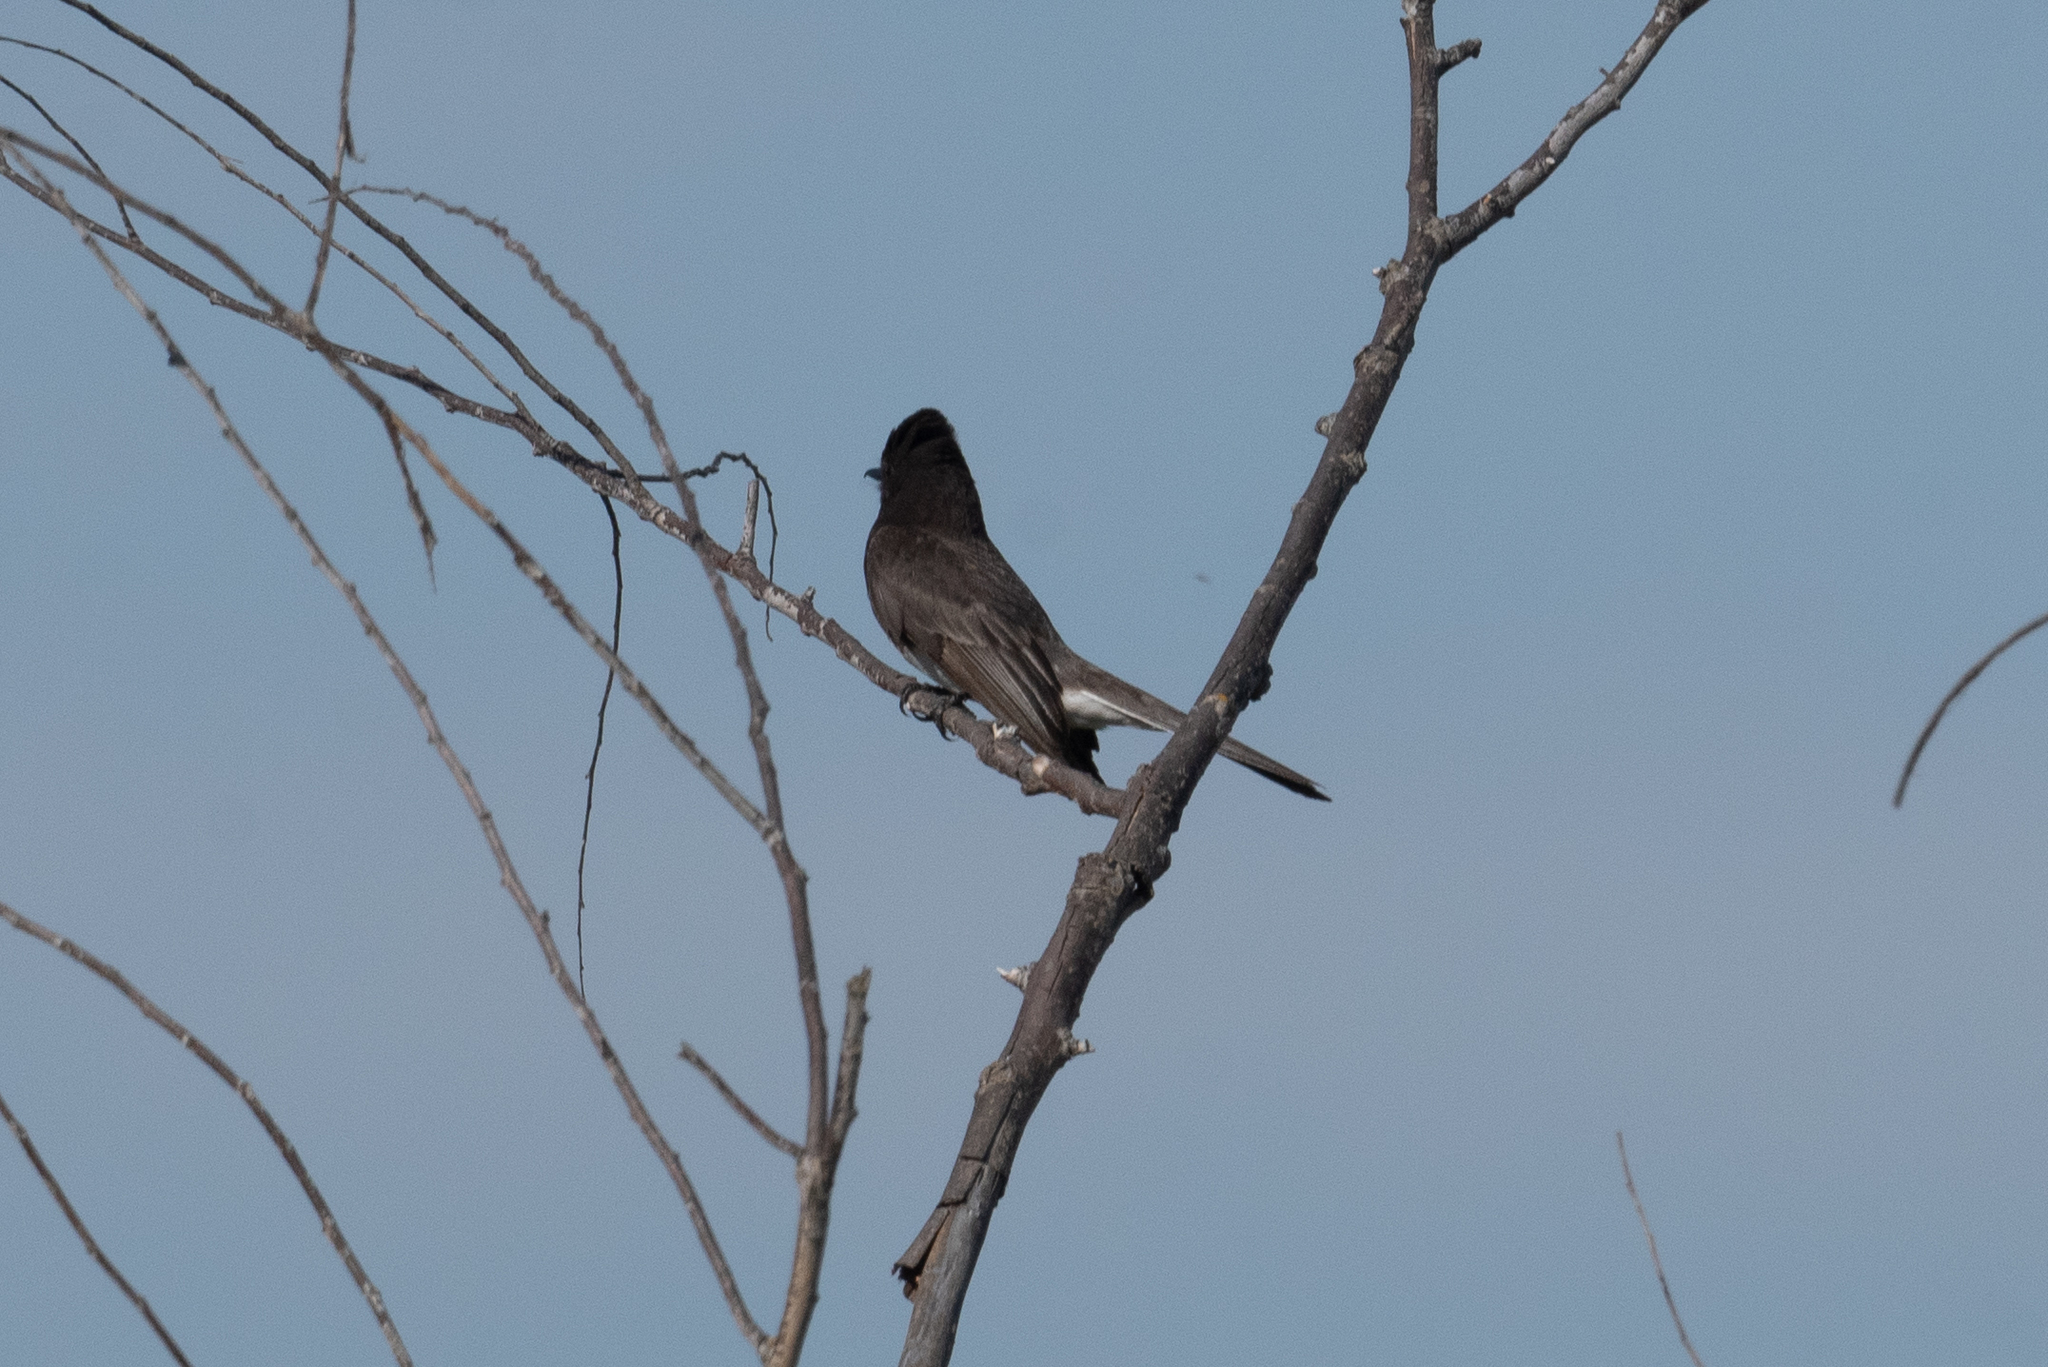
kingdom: Animalia
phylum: Chordata
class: Aves
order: Passeriformes
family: Tyrannidae
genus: Sayornis
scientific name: Sayornis nigricans
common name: Black phoebe
